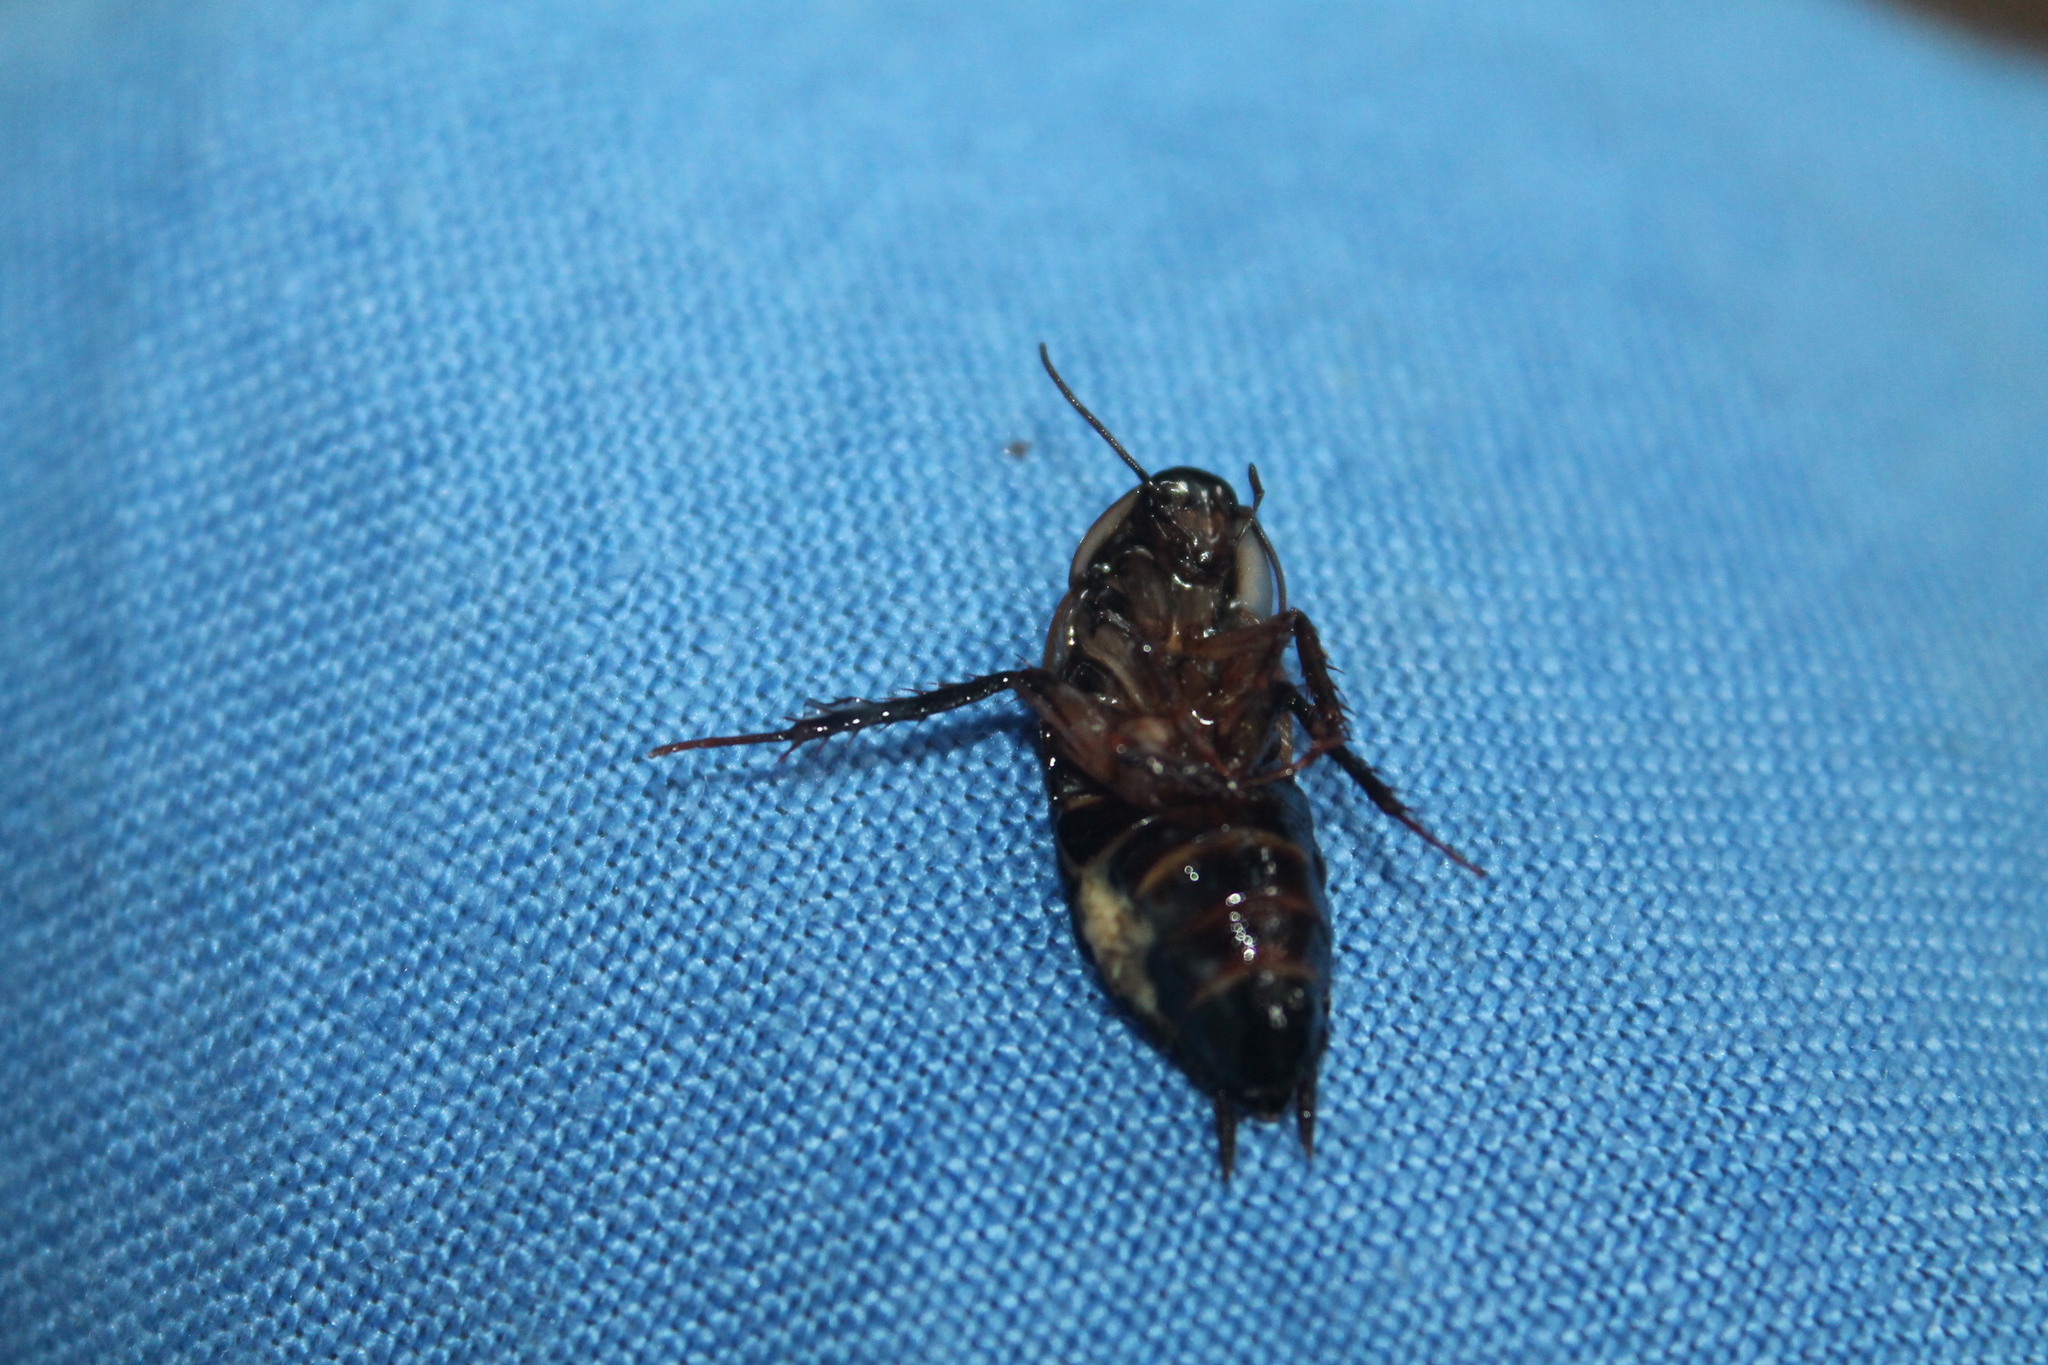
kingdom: Animalia
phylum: Arthropoda
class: Insecta
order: Blattodea
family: Ectobiidae
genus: Parcoblatta
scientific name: Parcoblatta pennsylvanica
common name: Pennsylvanian wood cockroach
